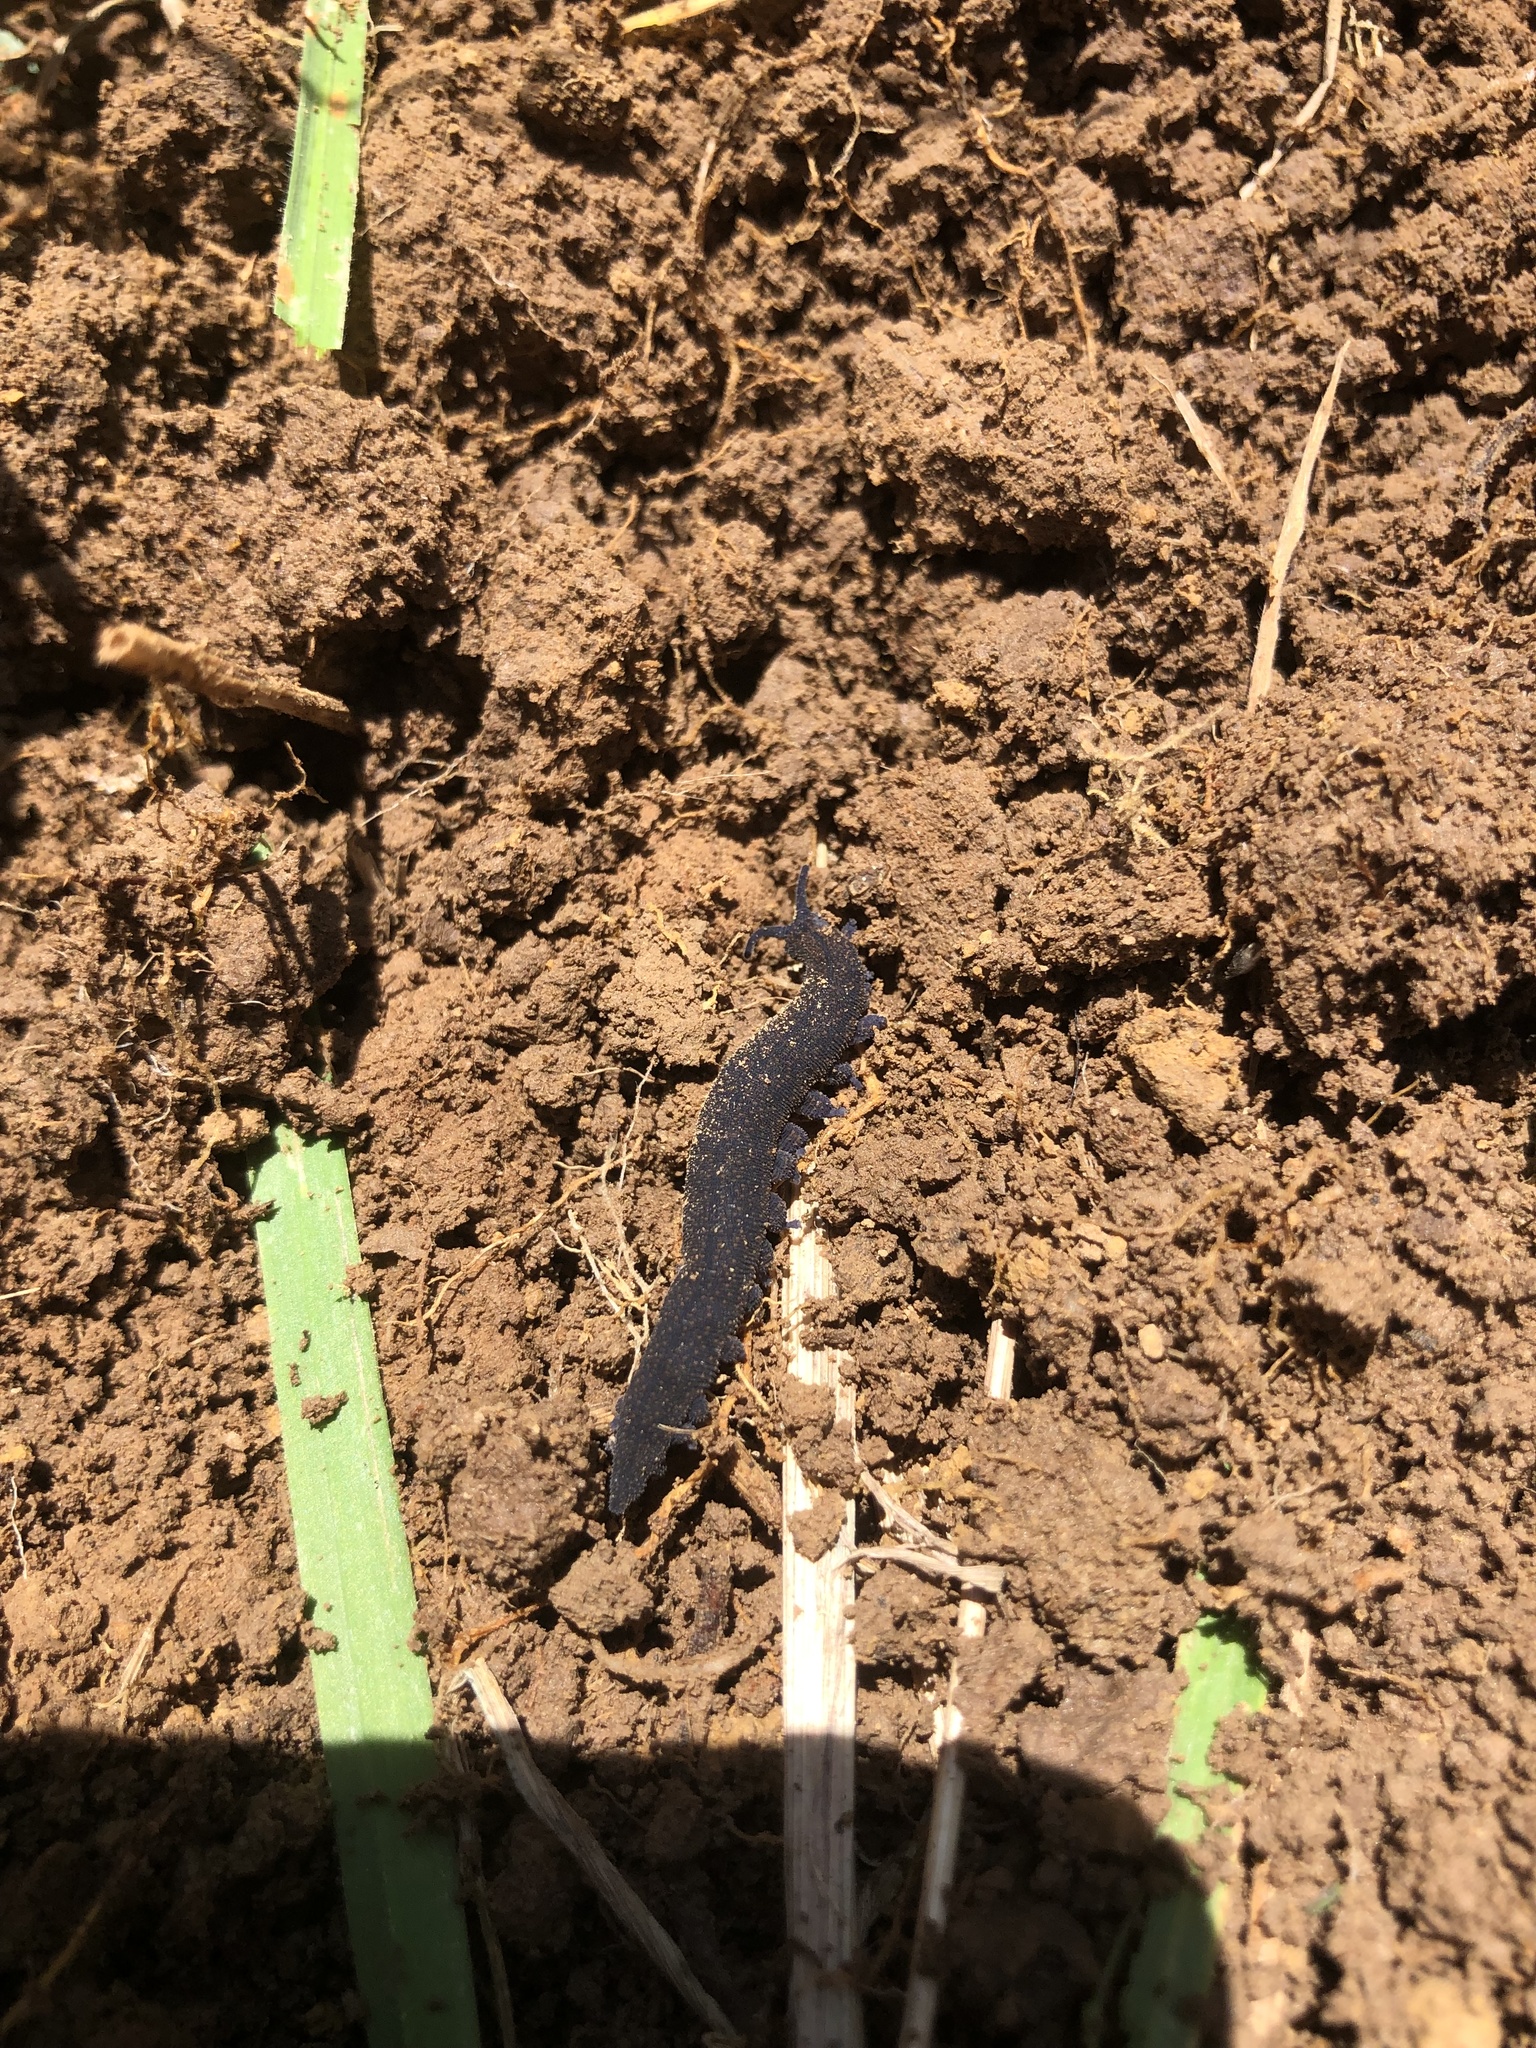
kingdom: Animalia
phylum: Onychophora
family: Peripatopsidae
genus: Peripatoides
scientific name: Peripatoides novaezealandiae
